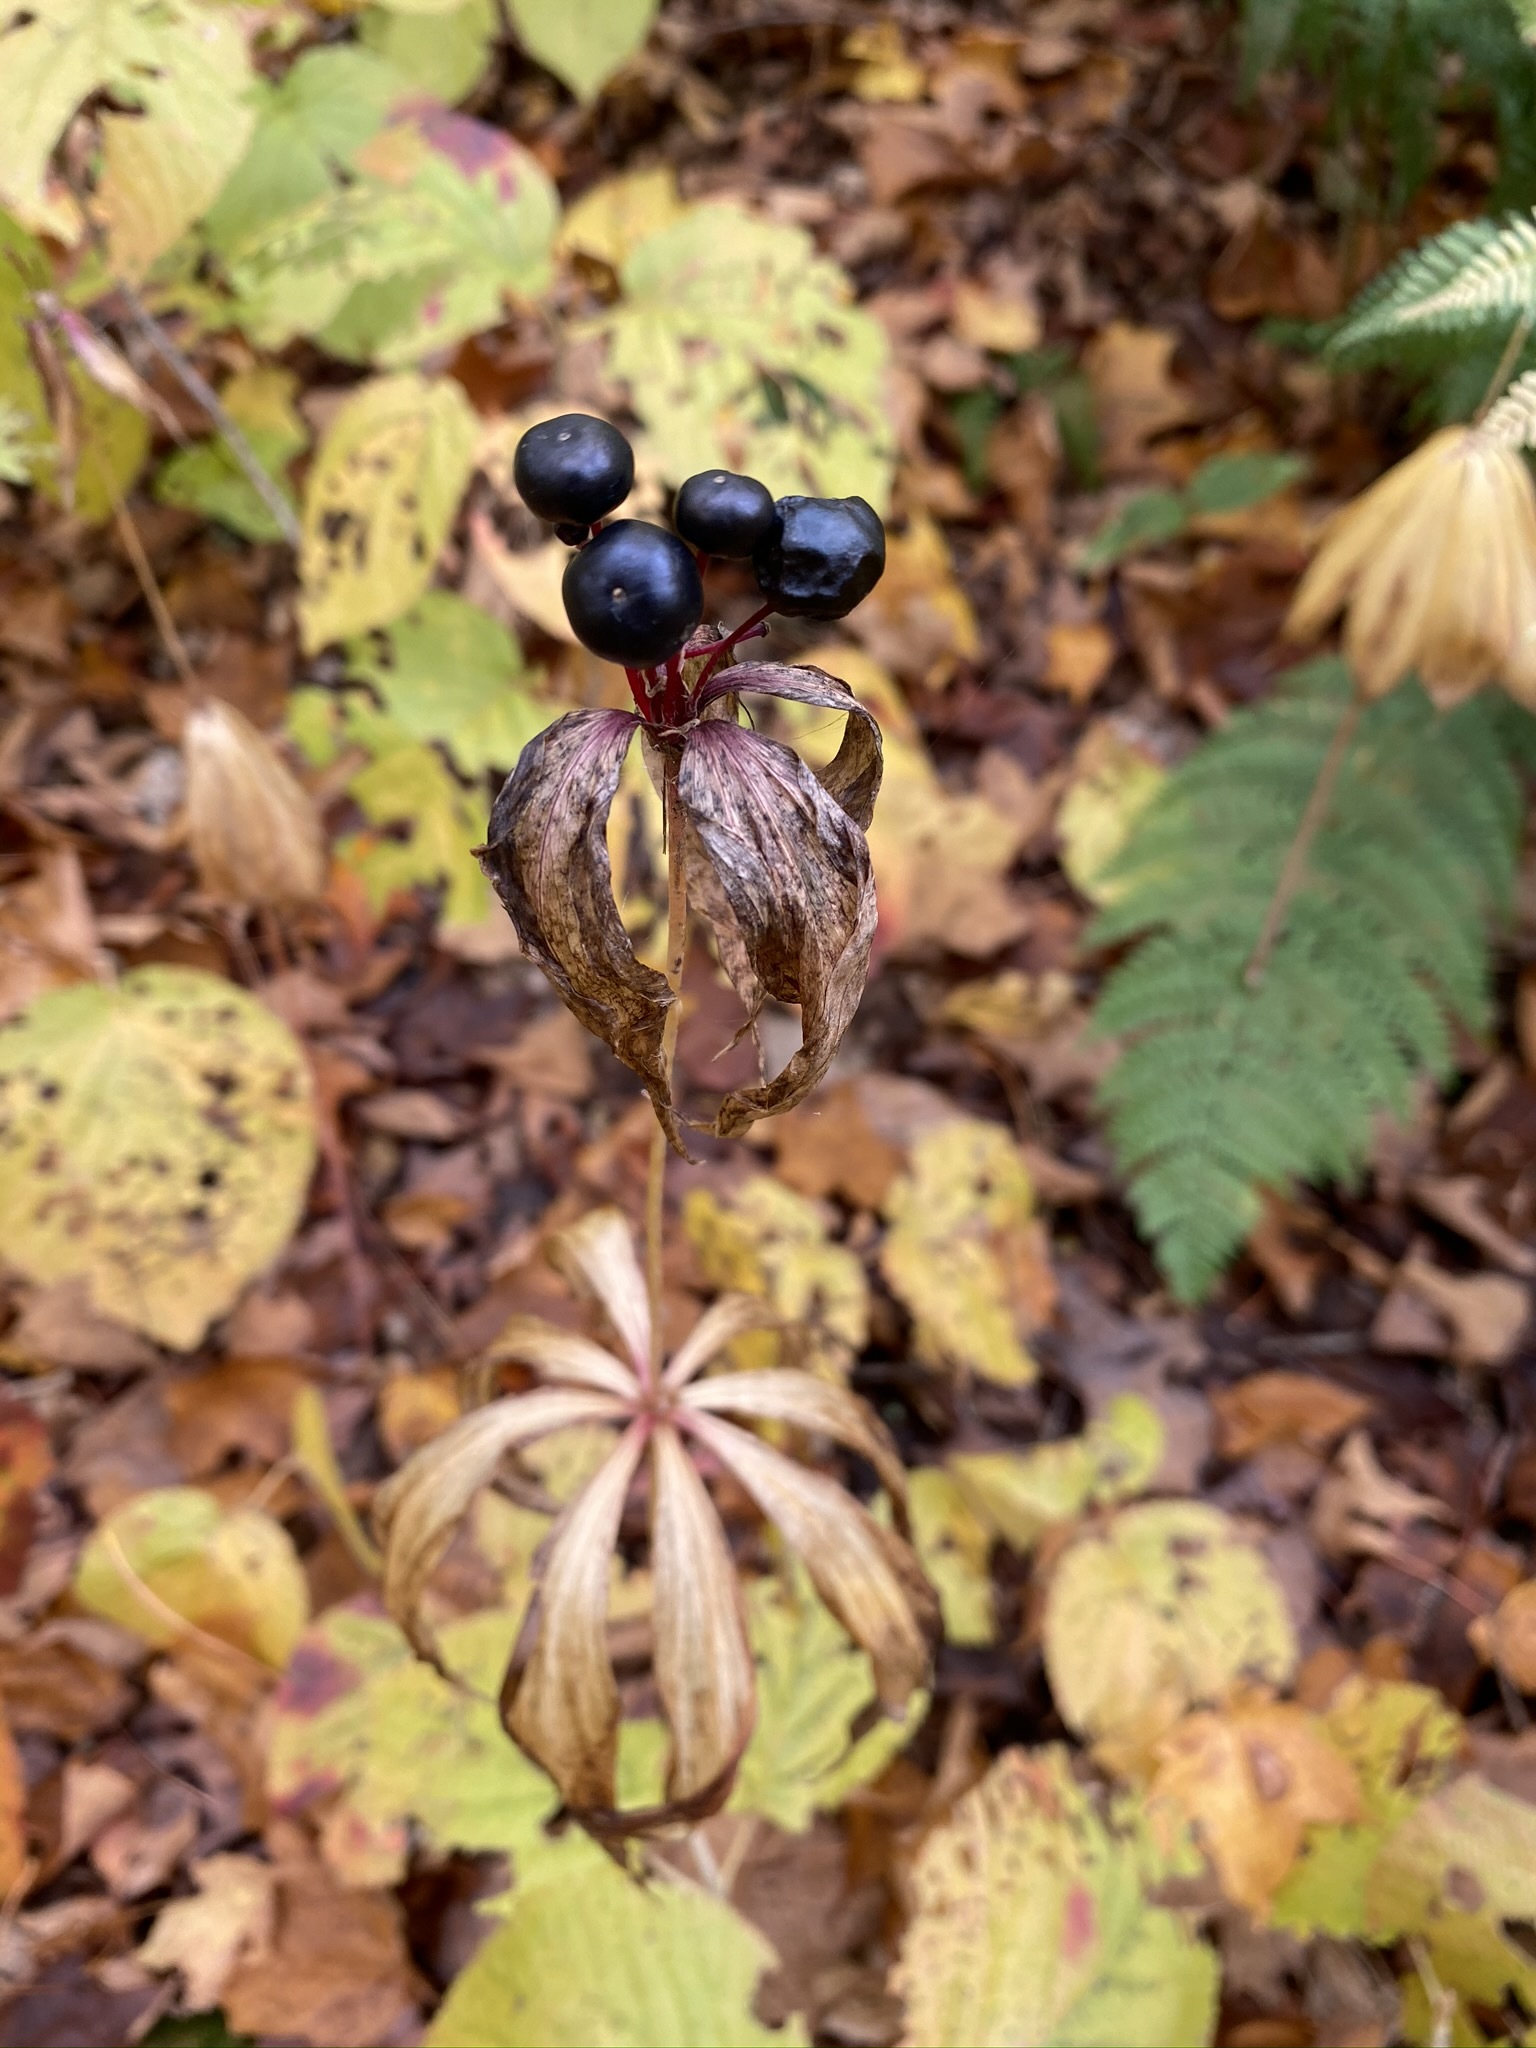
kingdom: Plantae
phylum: Tracheophyta
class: Liliopsida
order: Liliales
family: Liliaceae
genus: Medeola
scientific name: Medeola virginiana
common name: Indian cucumber-root
